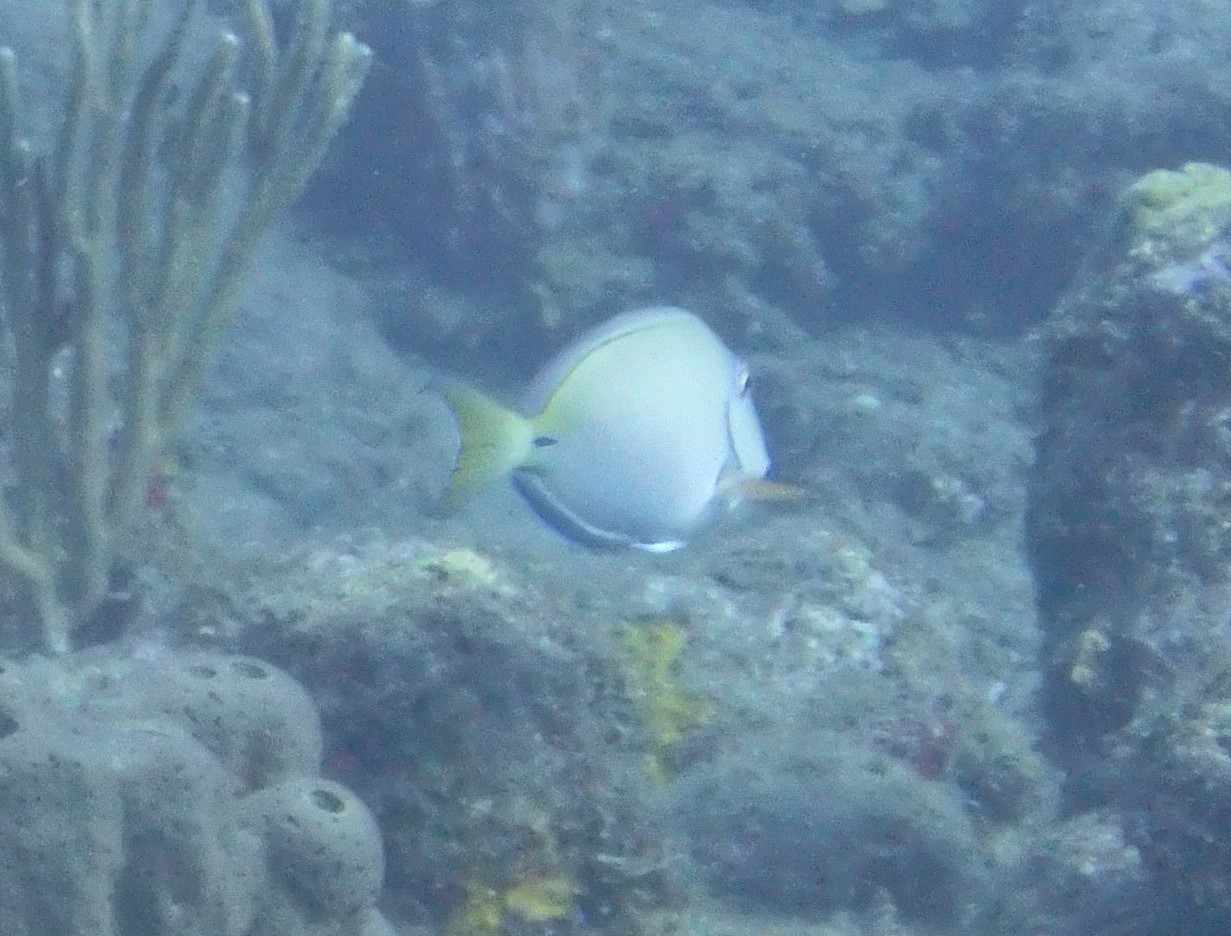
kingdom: Animalia
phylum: Chordata
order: Perciformes
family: Acanthuridae
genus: Acanthurus
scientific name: Acanthurus bahianus
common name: Ocean surgeon
